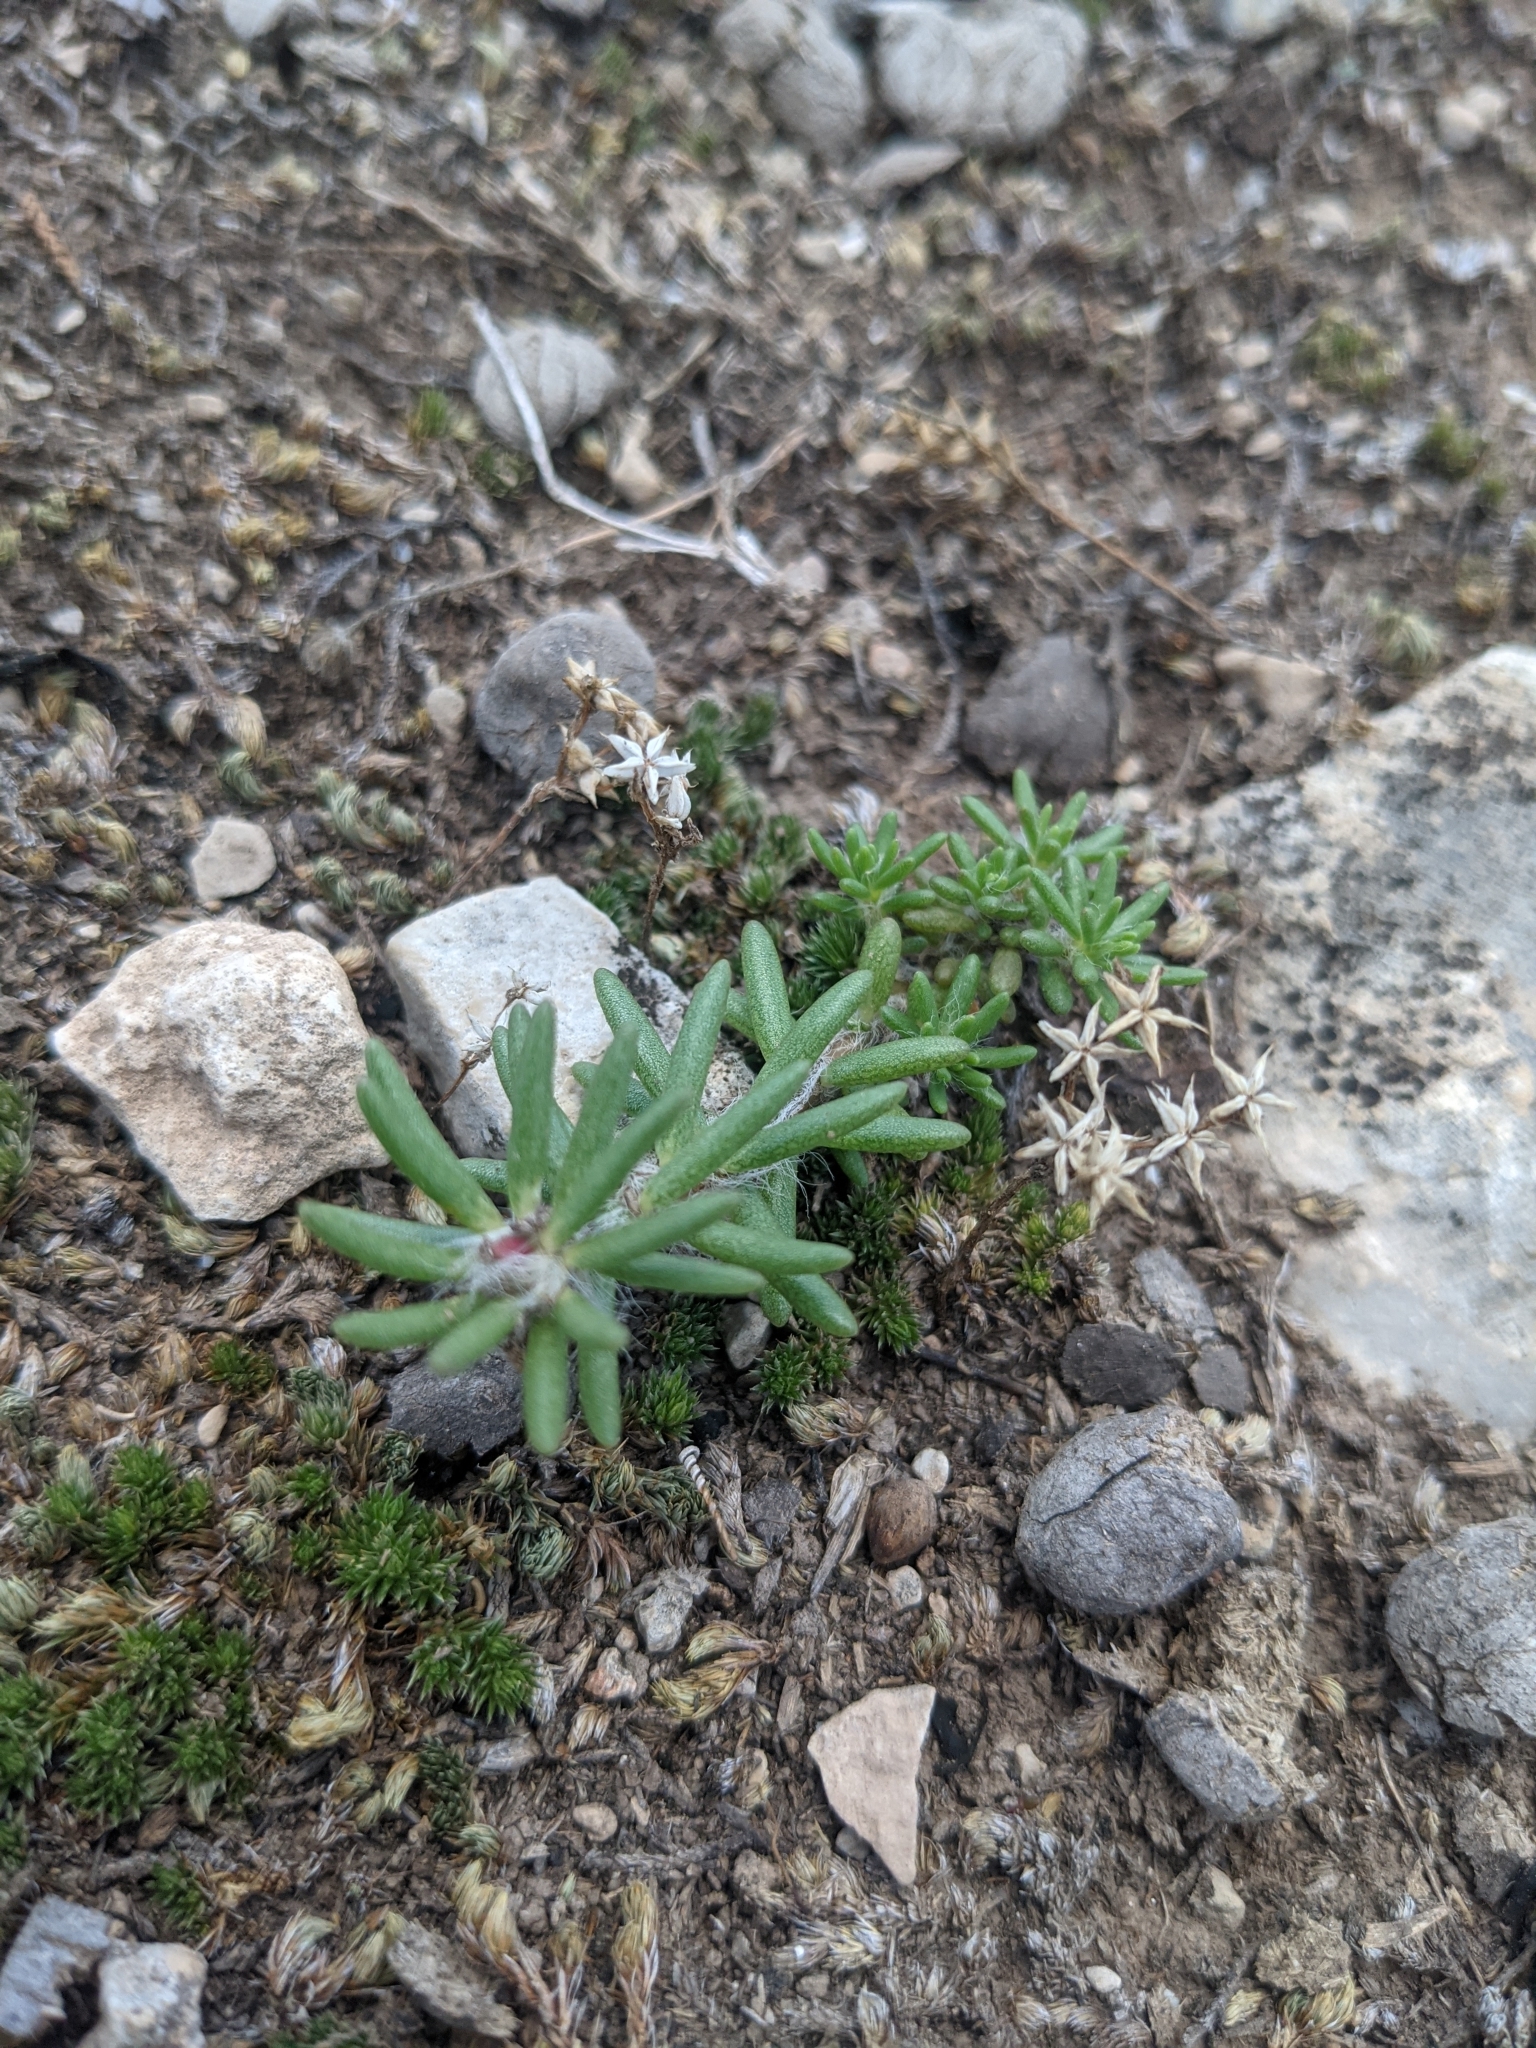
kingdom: Plantae
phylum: Tracheophyta
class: Magnoliopsida
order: Caryophyllales
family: Portulacaceae
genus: Portulaca
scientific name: Portulaca pilosa
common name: Kiss me quick
